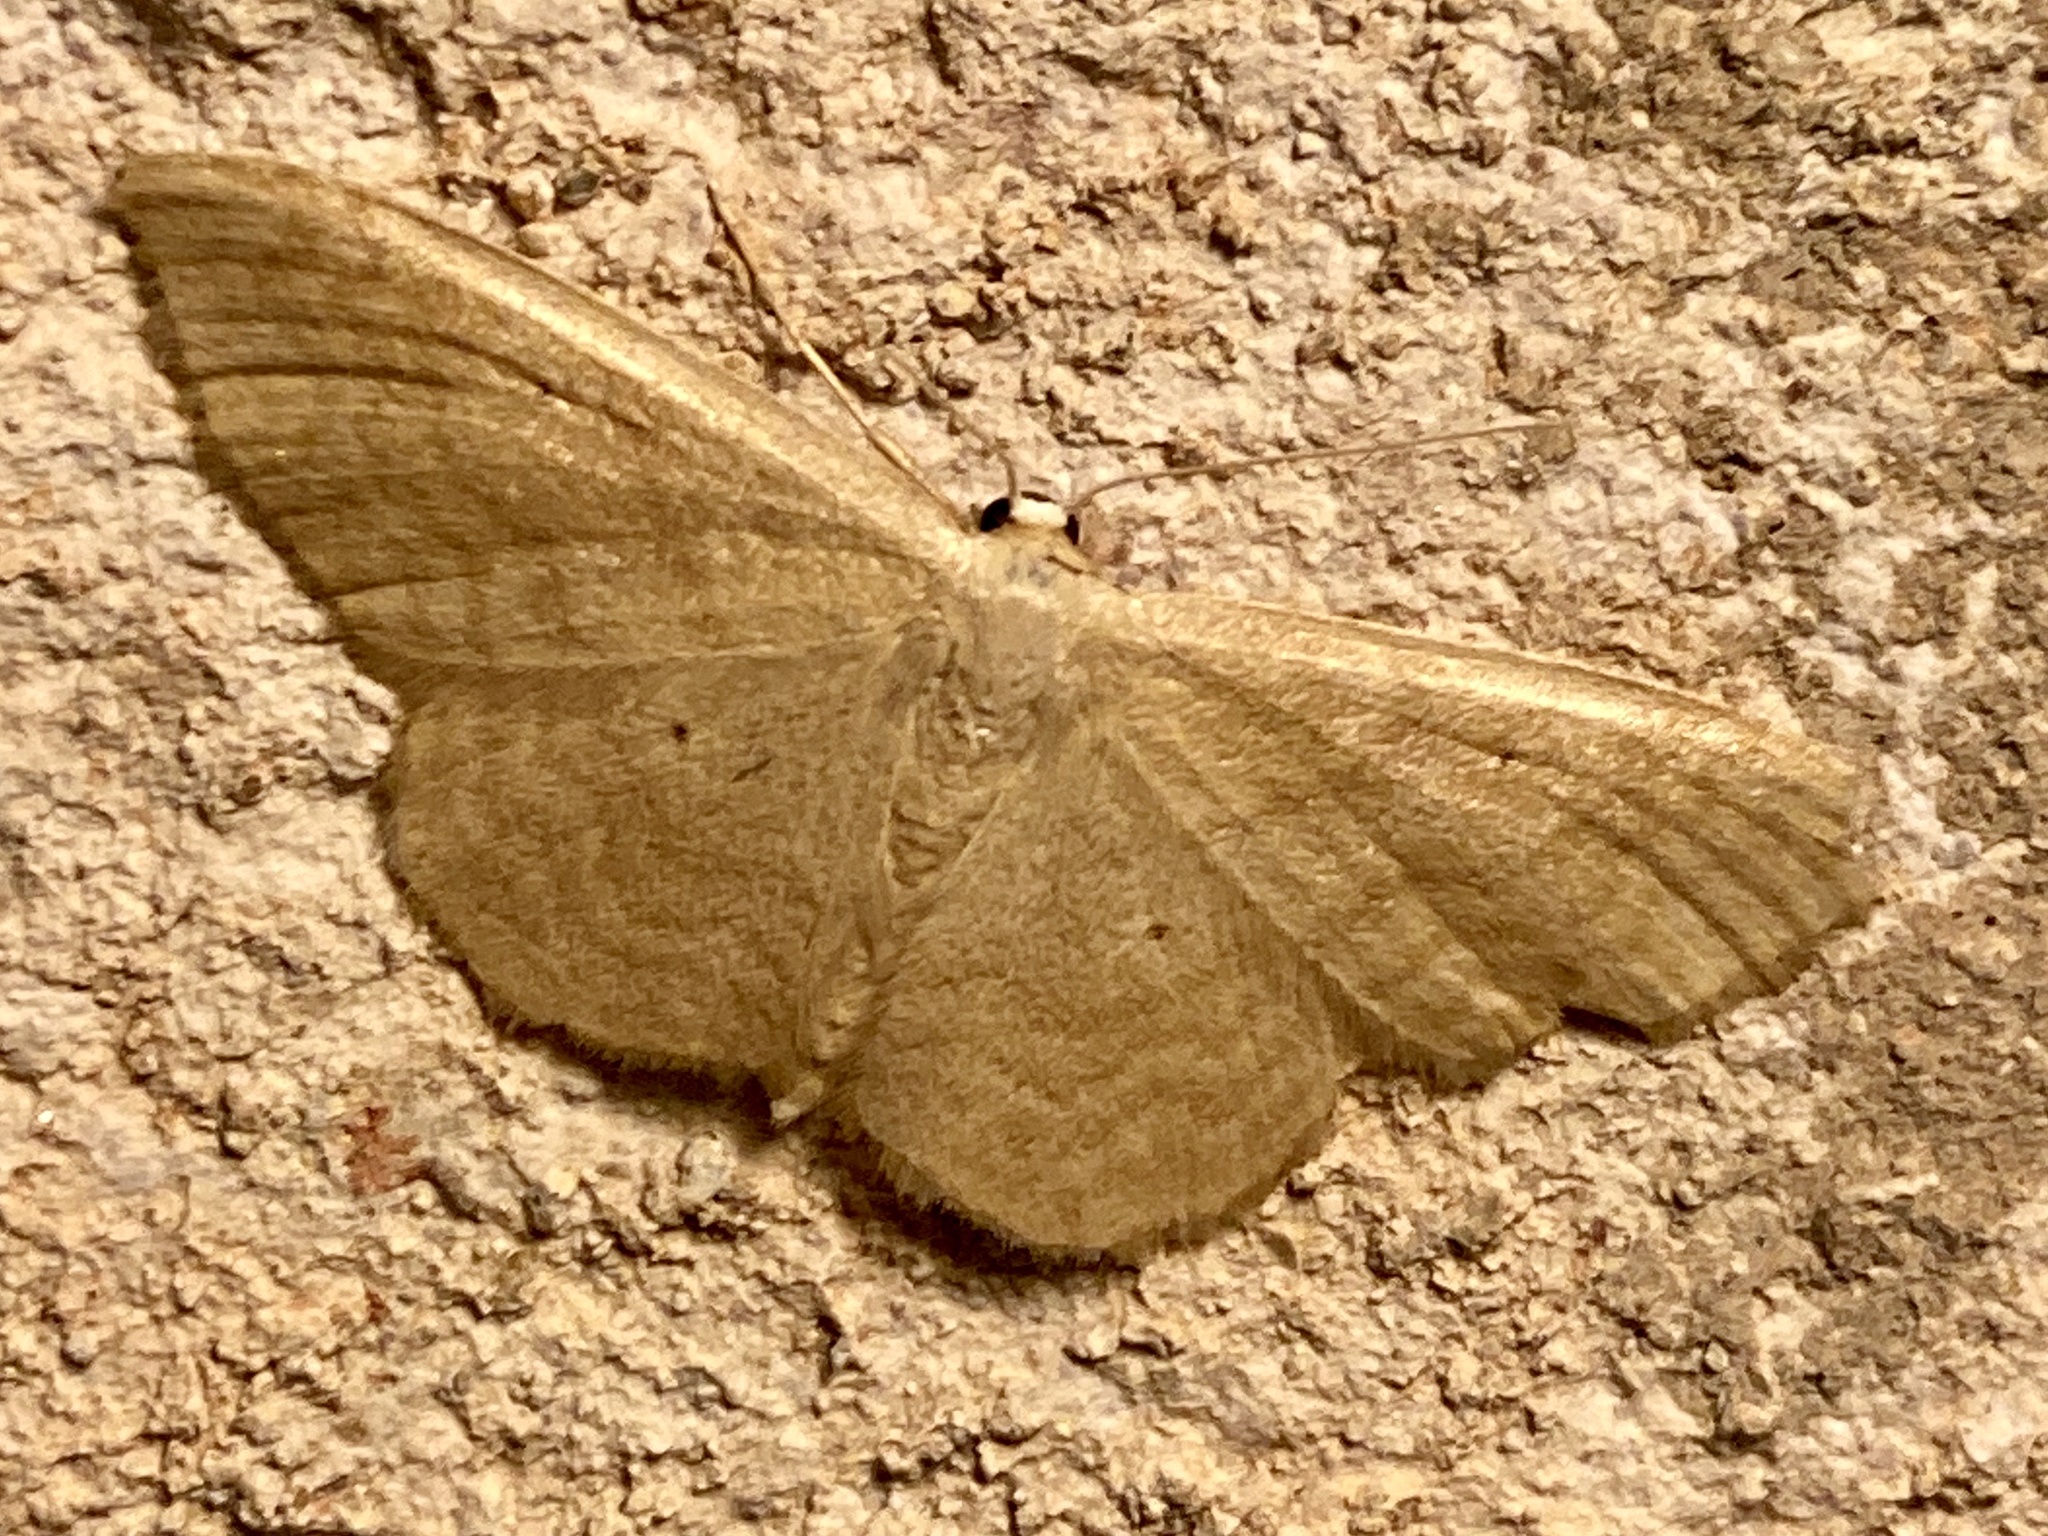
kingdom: Animalia
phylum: Arthropoda
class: Insecta
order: Lepidoptera
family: Geometridae
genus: Idaea
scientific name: Idaea consanguinaria
